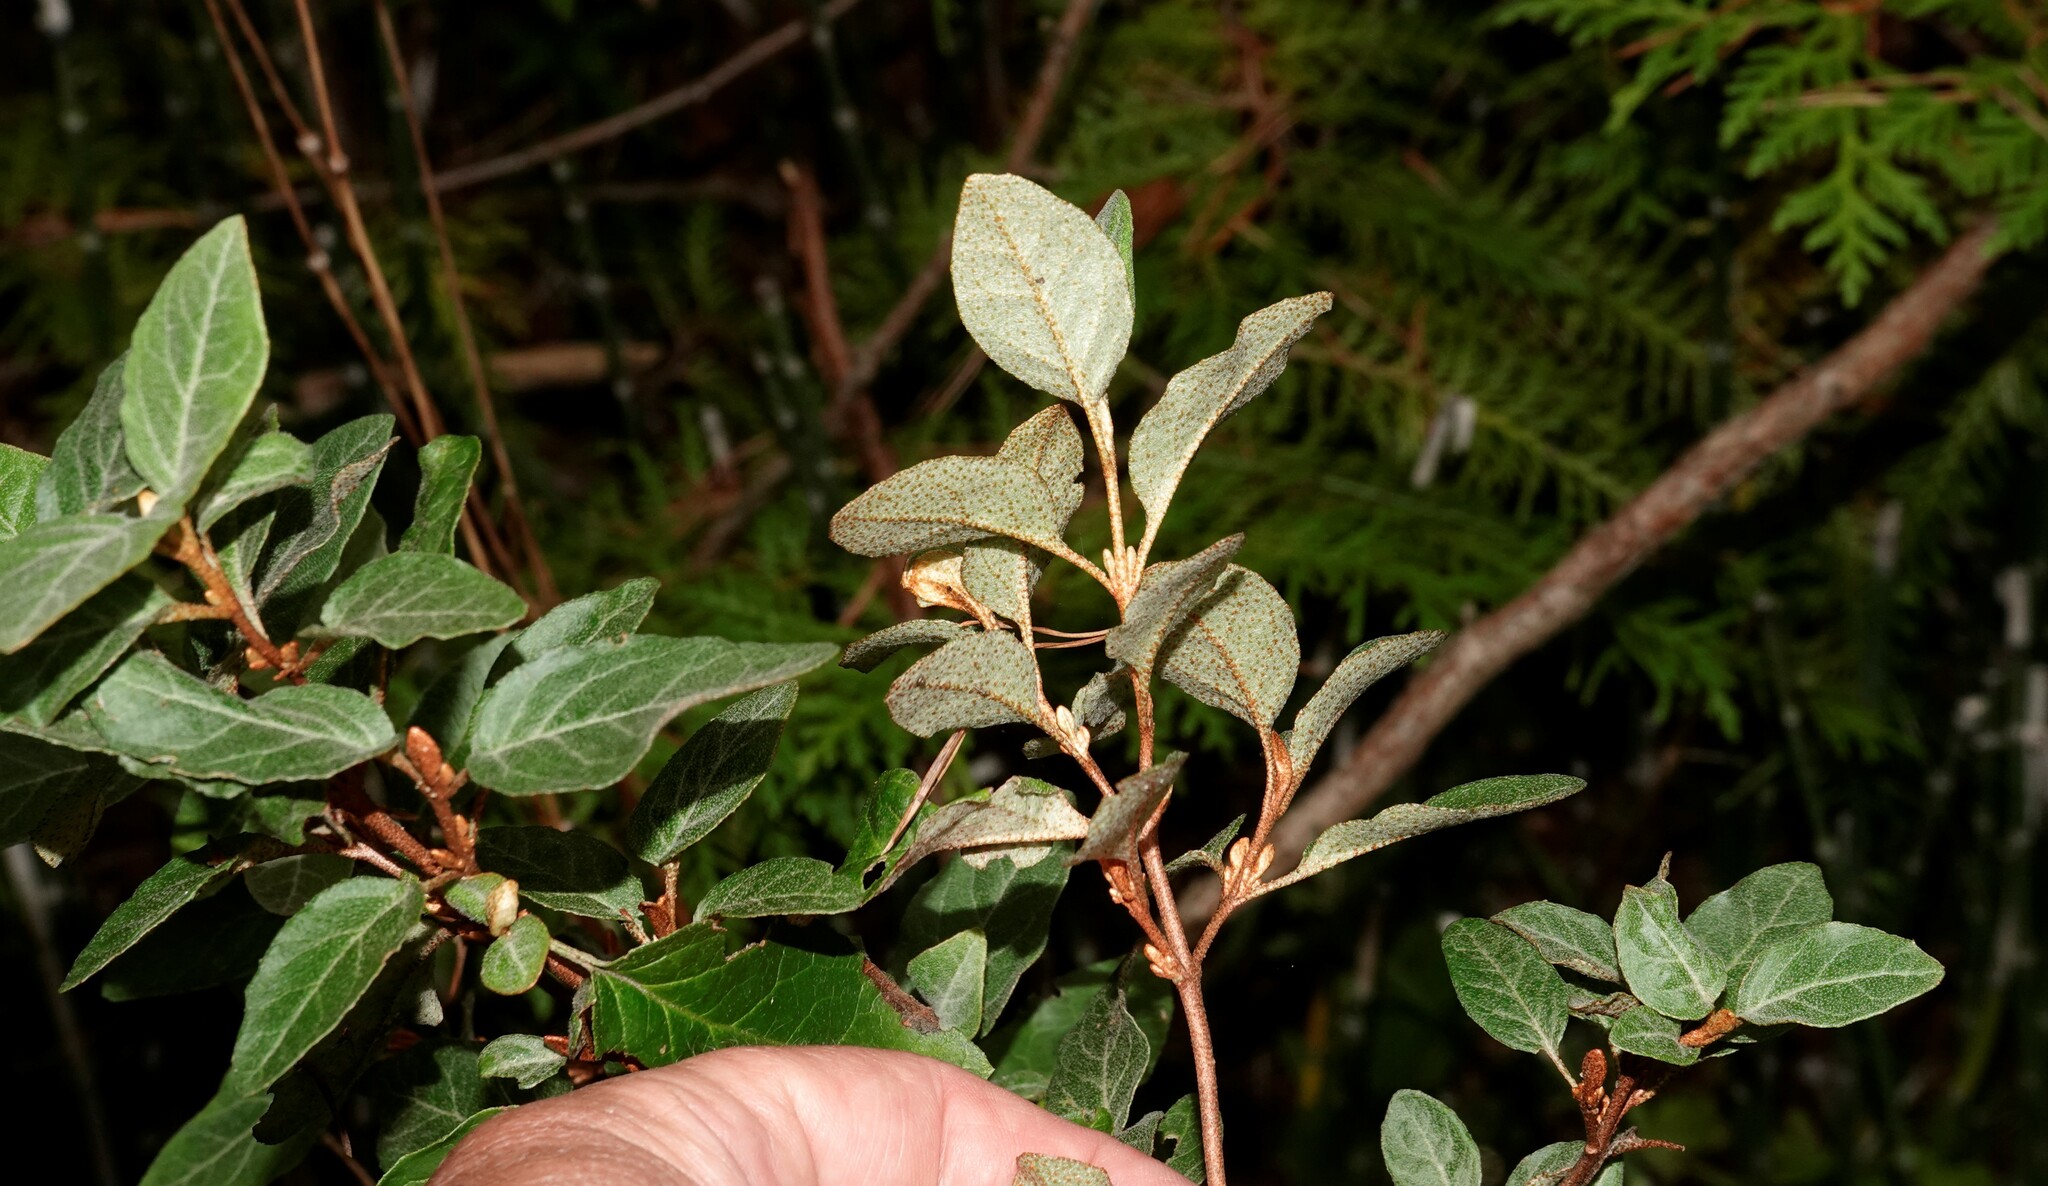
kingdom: Plantae
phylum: Tracheophyta
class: Magnoliopsida
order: Rosales
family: Elaeagnaceae
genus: Shepherdia
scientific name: Shepherdia canadensis
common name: Soapberry
